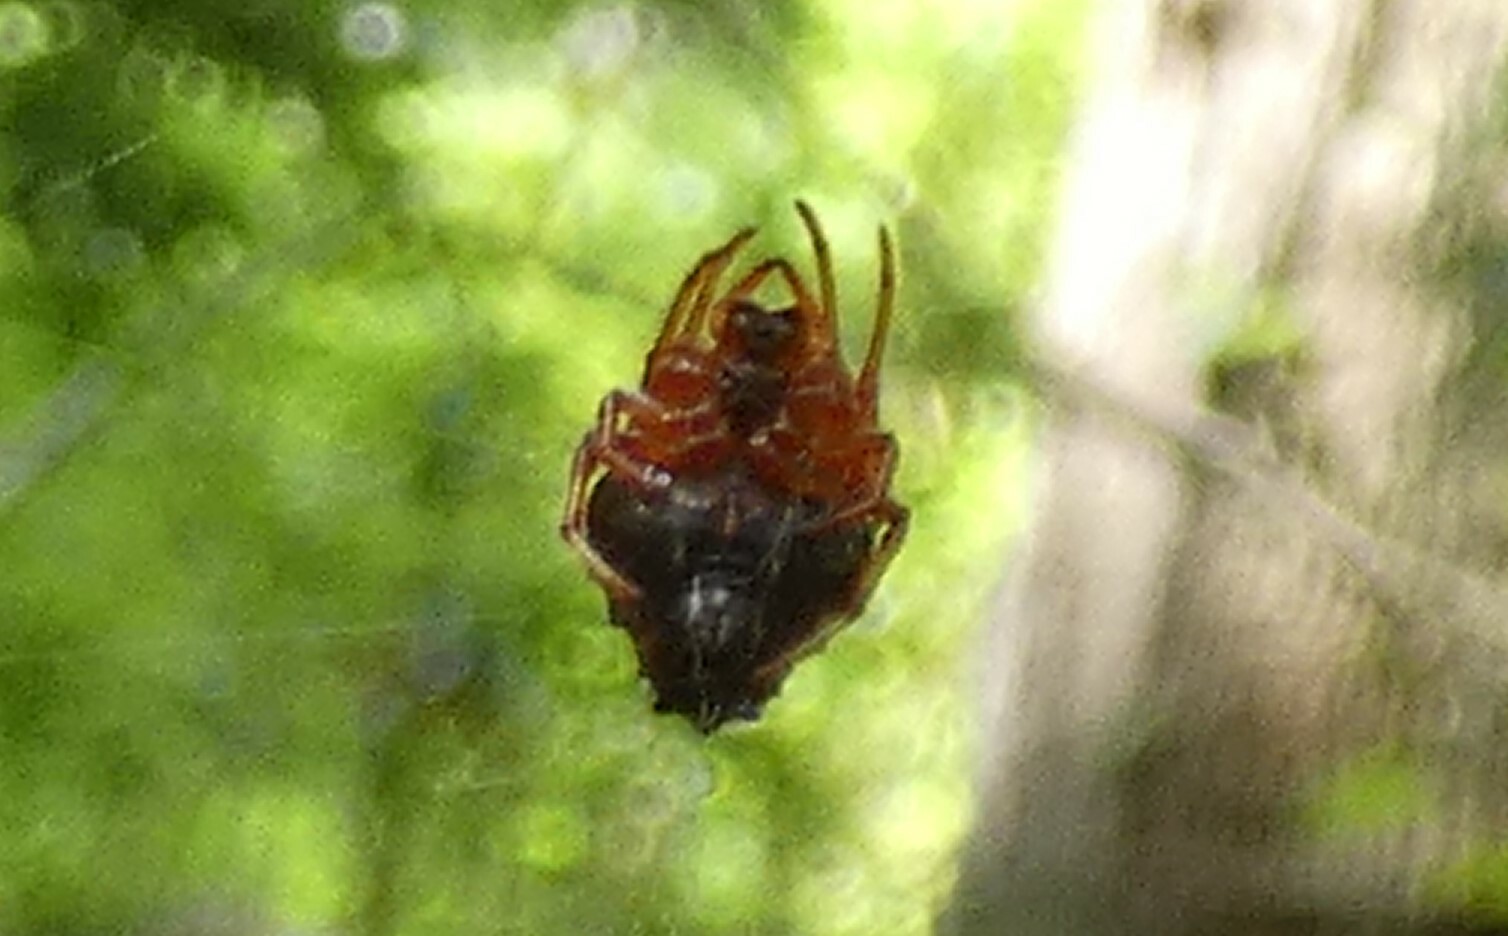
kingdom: Animalia
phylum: Arthropoda
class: Arachnida
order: Araneae
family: Araneidae
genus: Verrucosa
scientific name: Verrucosa arenata
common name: Orb weavers
